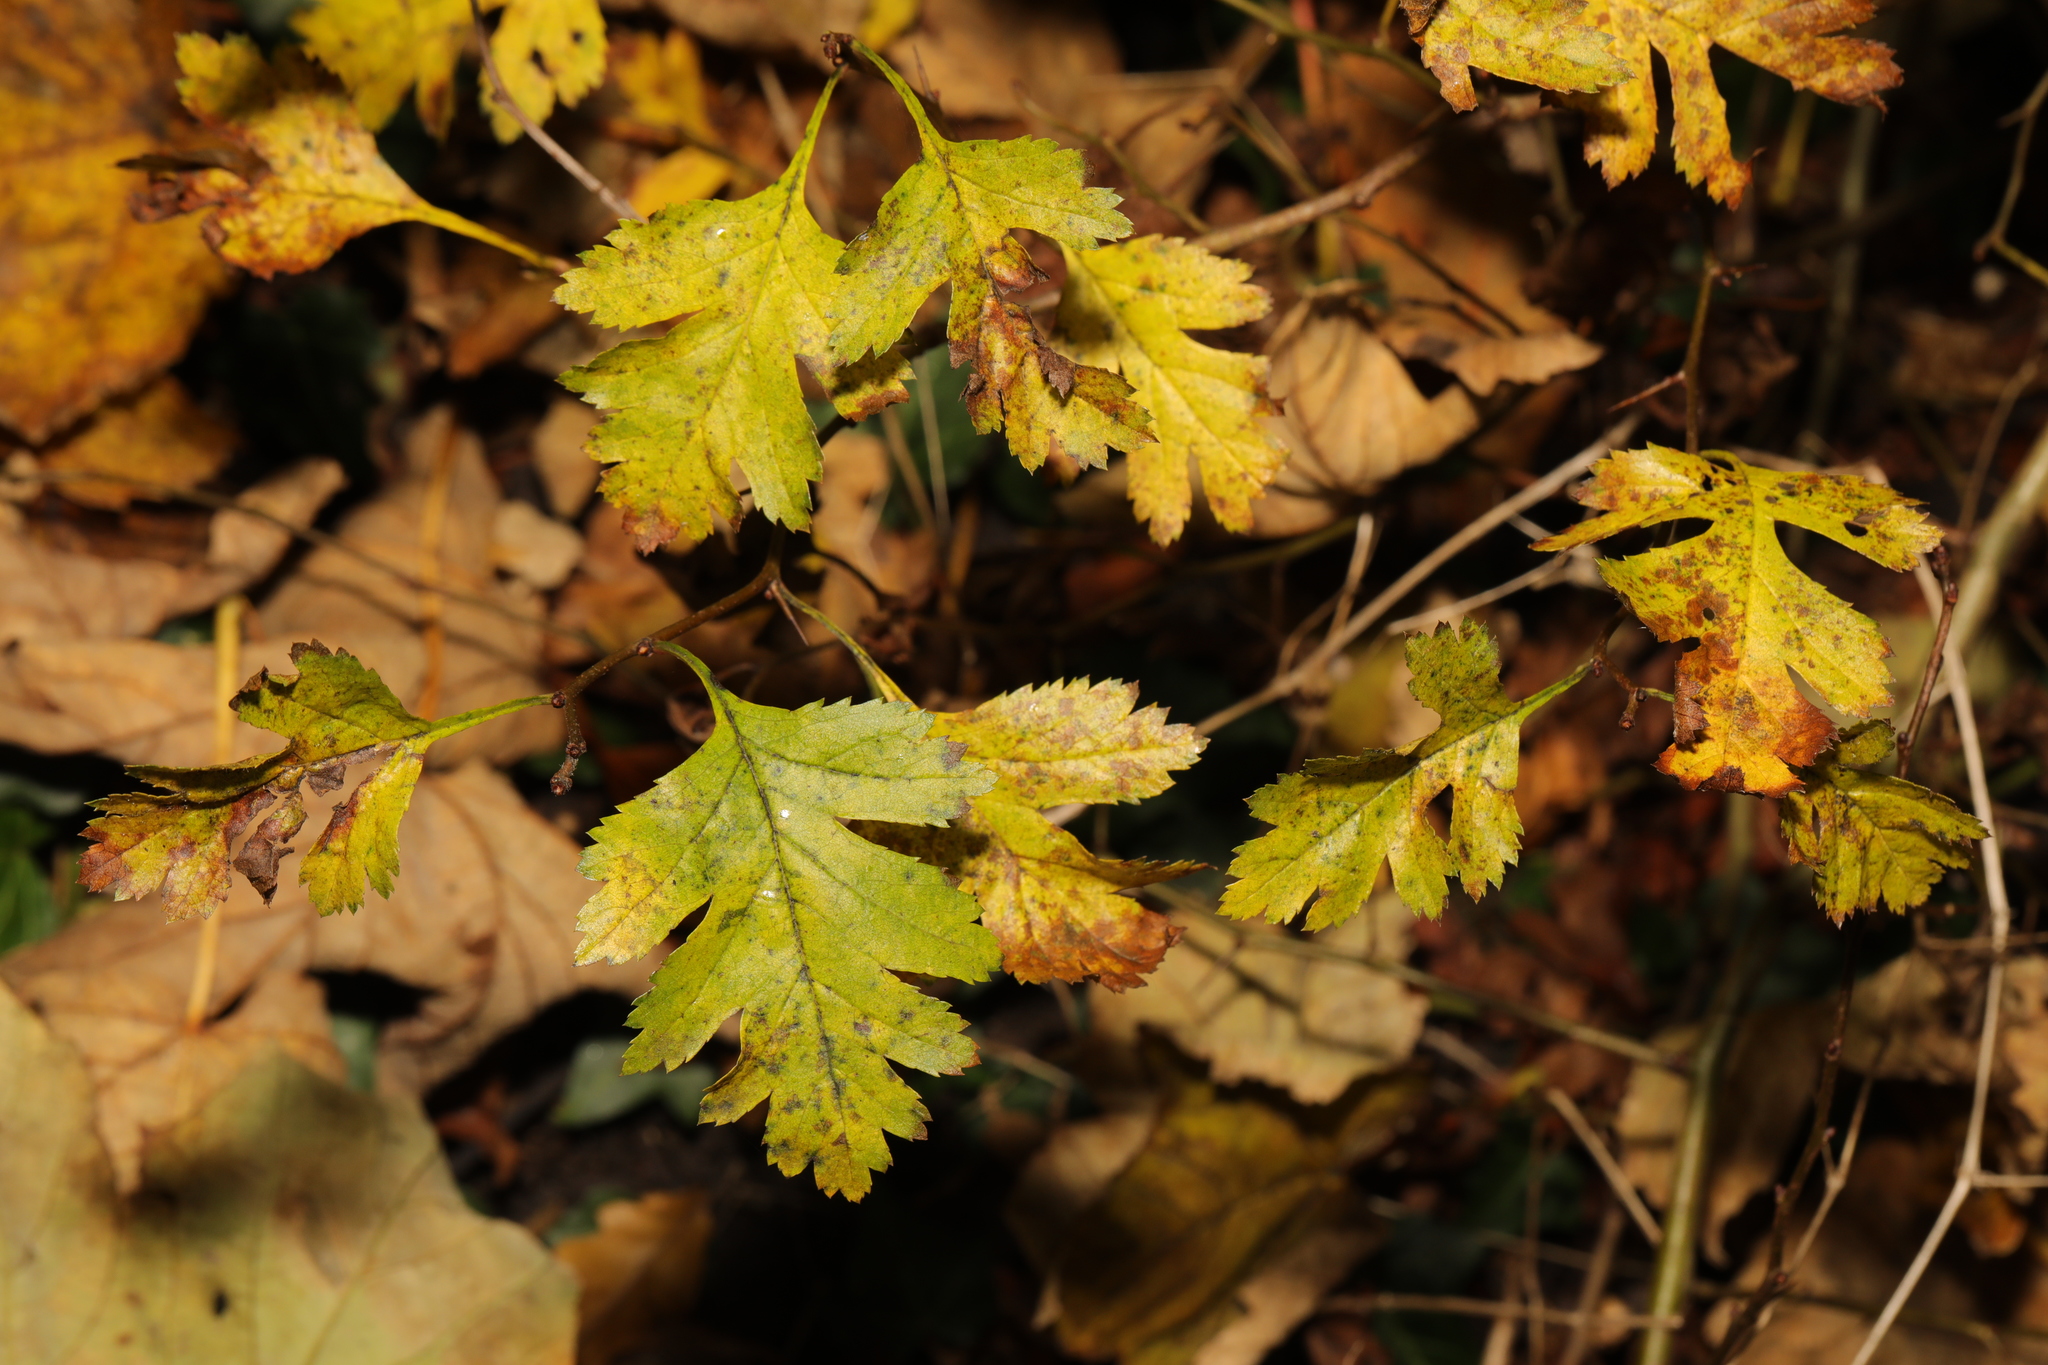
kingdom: Plantae
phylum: Tracheophyta
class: Magnoliopsida
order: Rosales
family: Rosaceae
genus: Crataegus
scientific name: Crataegus monogyna
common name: Hawthorn
